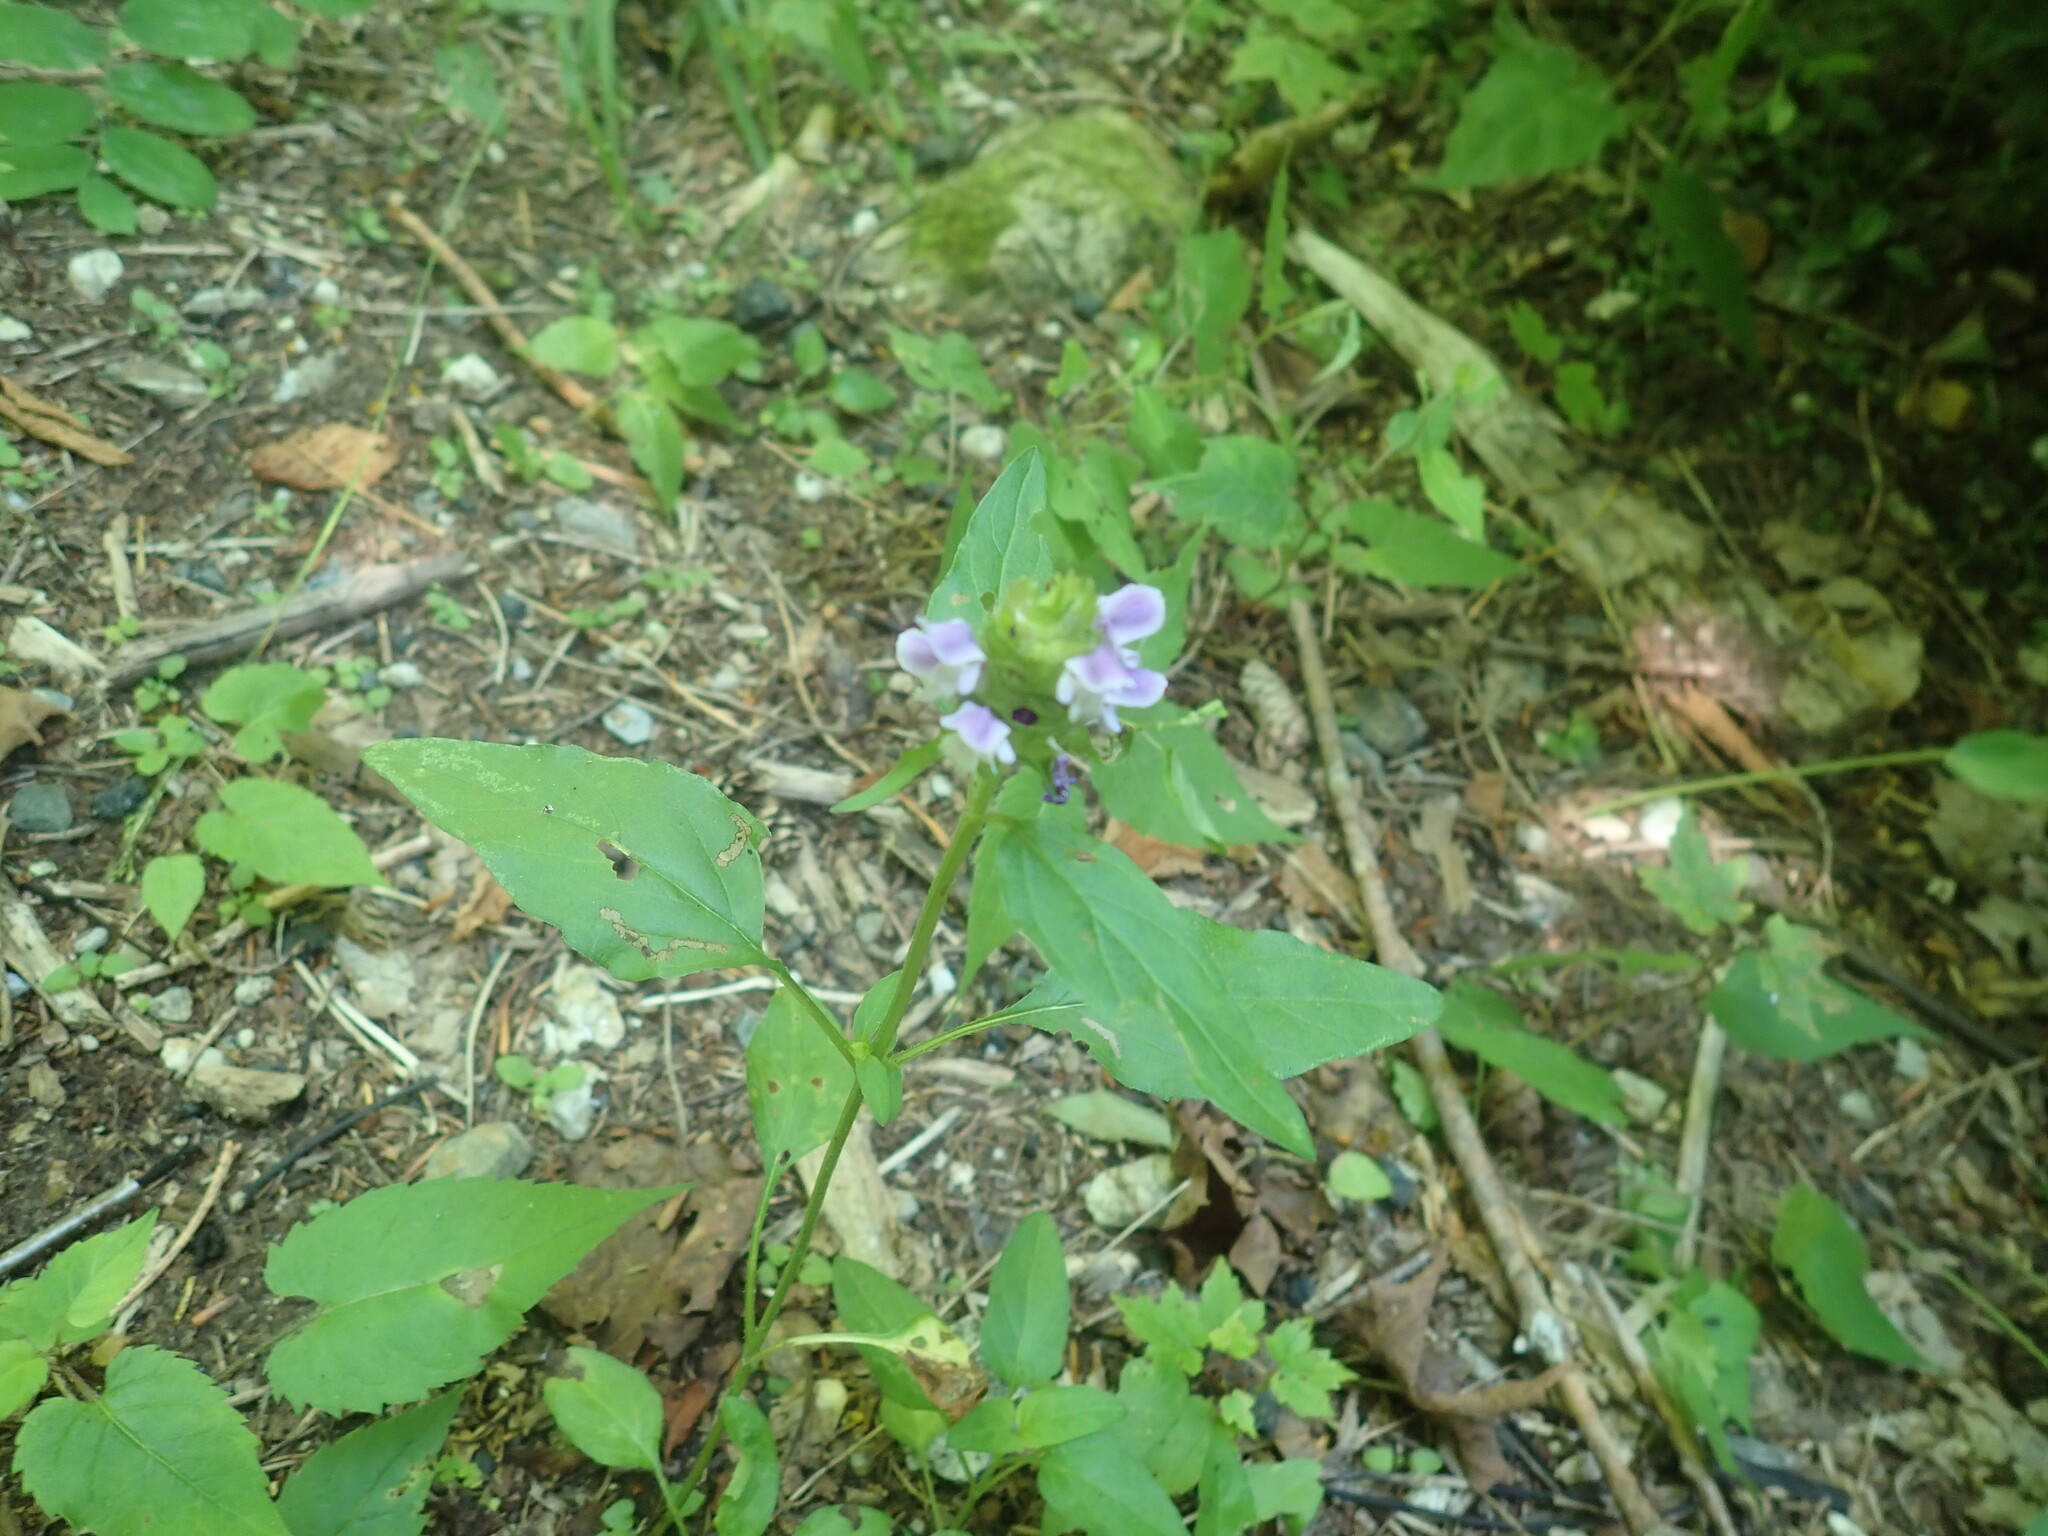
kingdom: Plantae
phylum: Tracheophyta
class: Magnoliopsida
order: Lamiales
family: Lamiaceae
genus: Prunella
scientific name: Prunella vulgaris
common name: Heal-all
